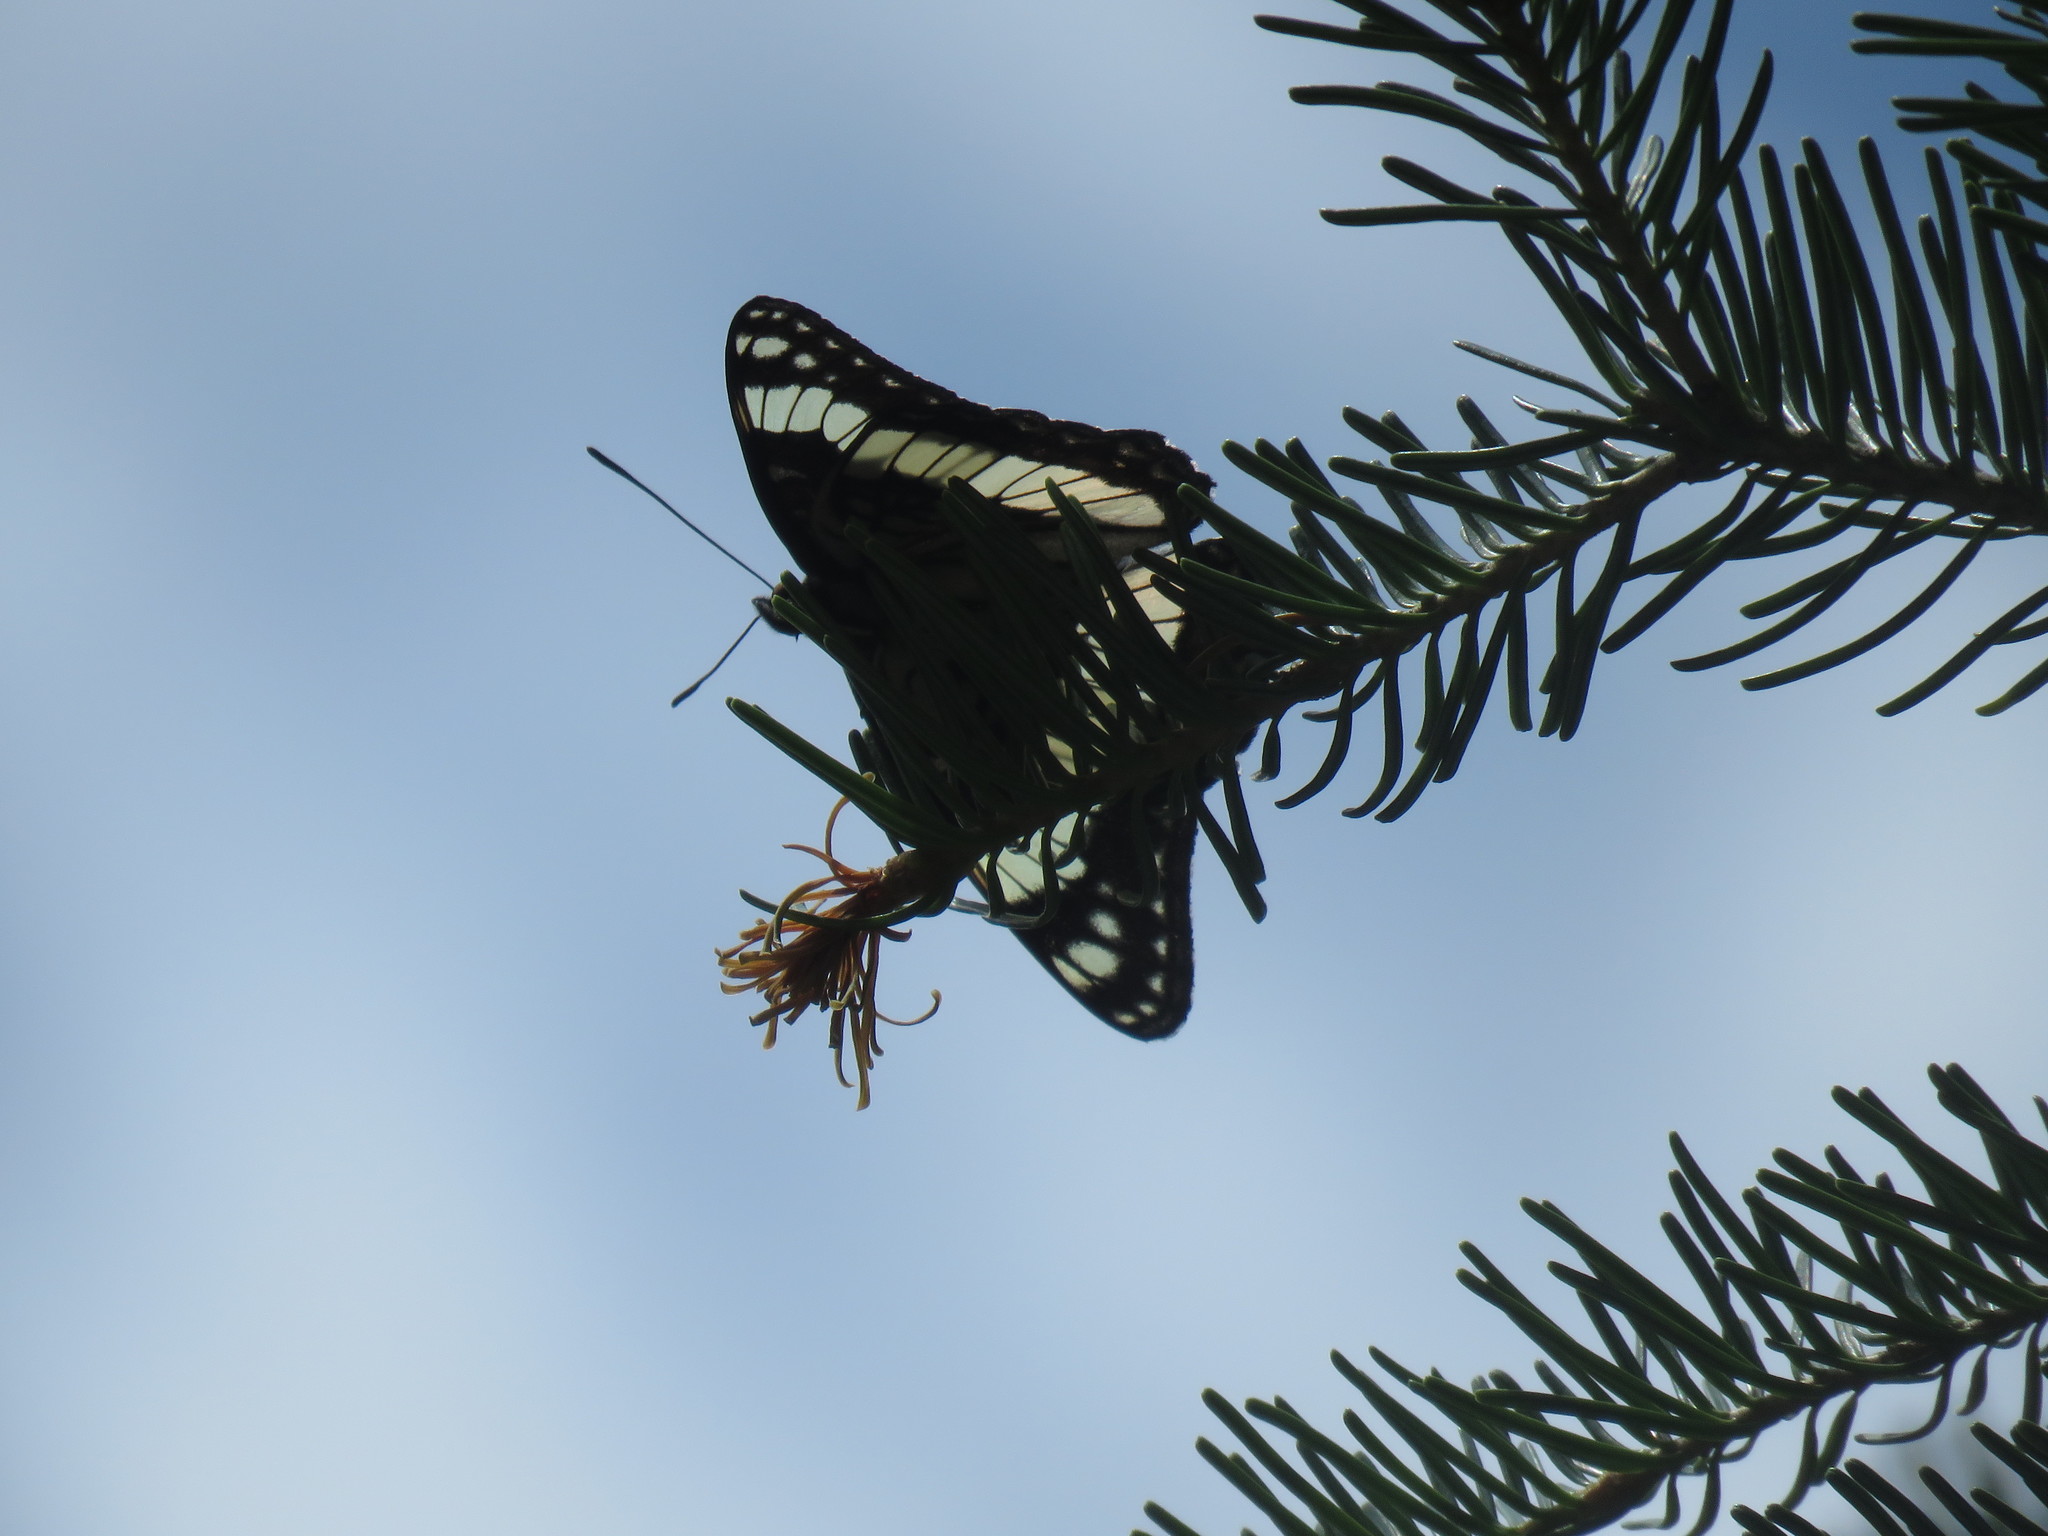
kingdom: Animalia
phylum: Arthropoda
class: Insecta
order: Lepidoptera
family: Nymphalidae
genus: Limenitis
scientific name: Limenitis weidemeyerii
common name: Weidemeyer's admiral
